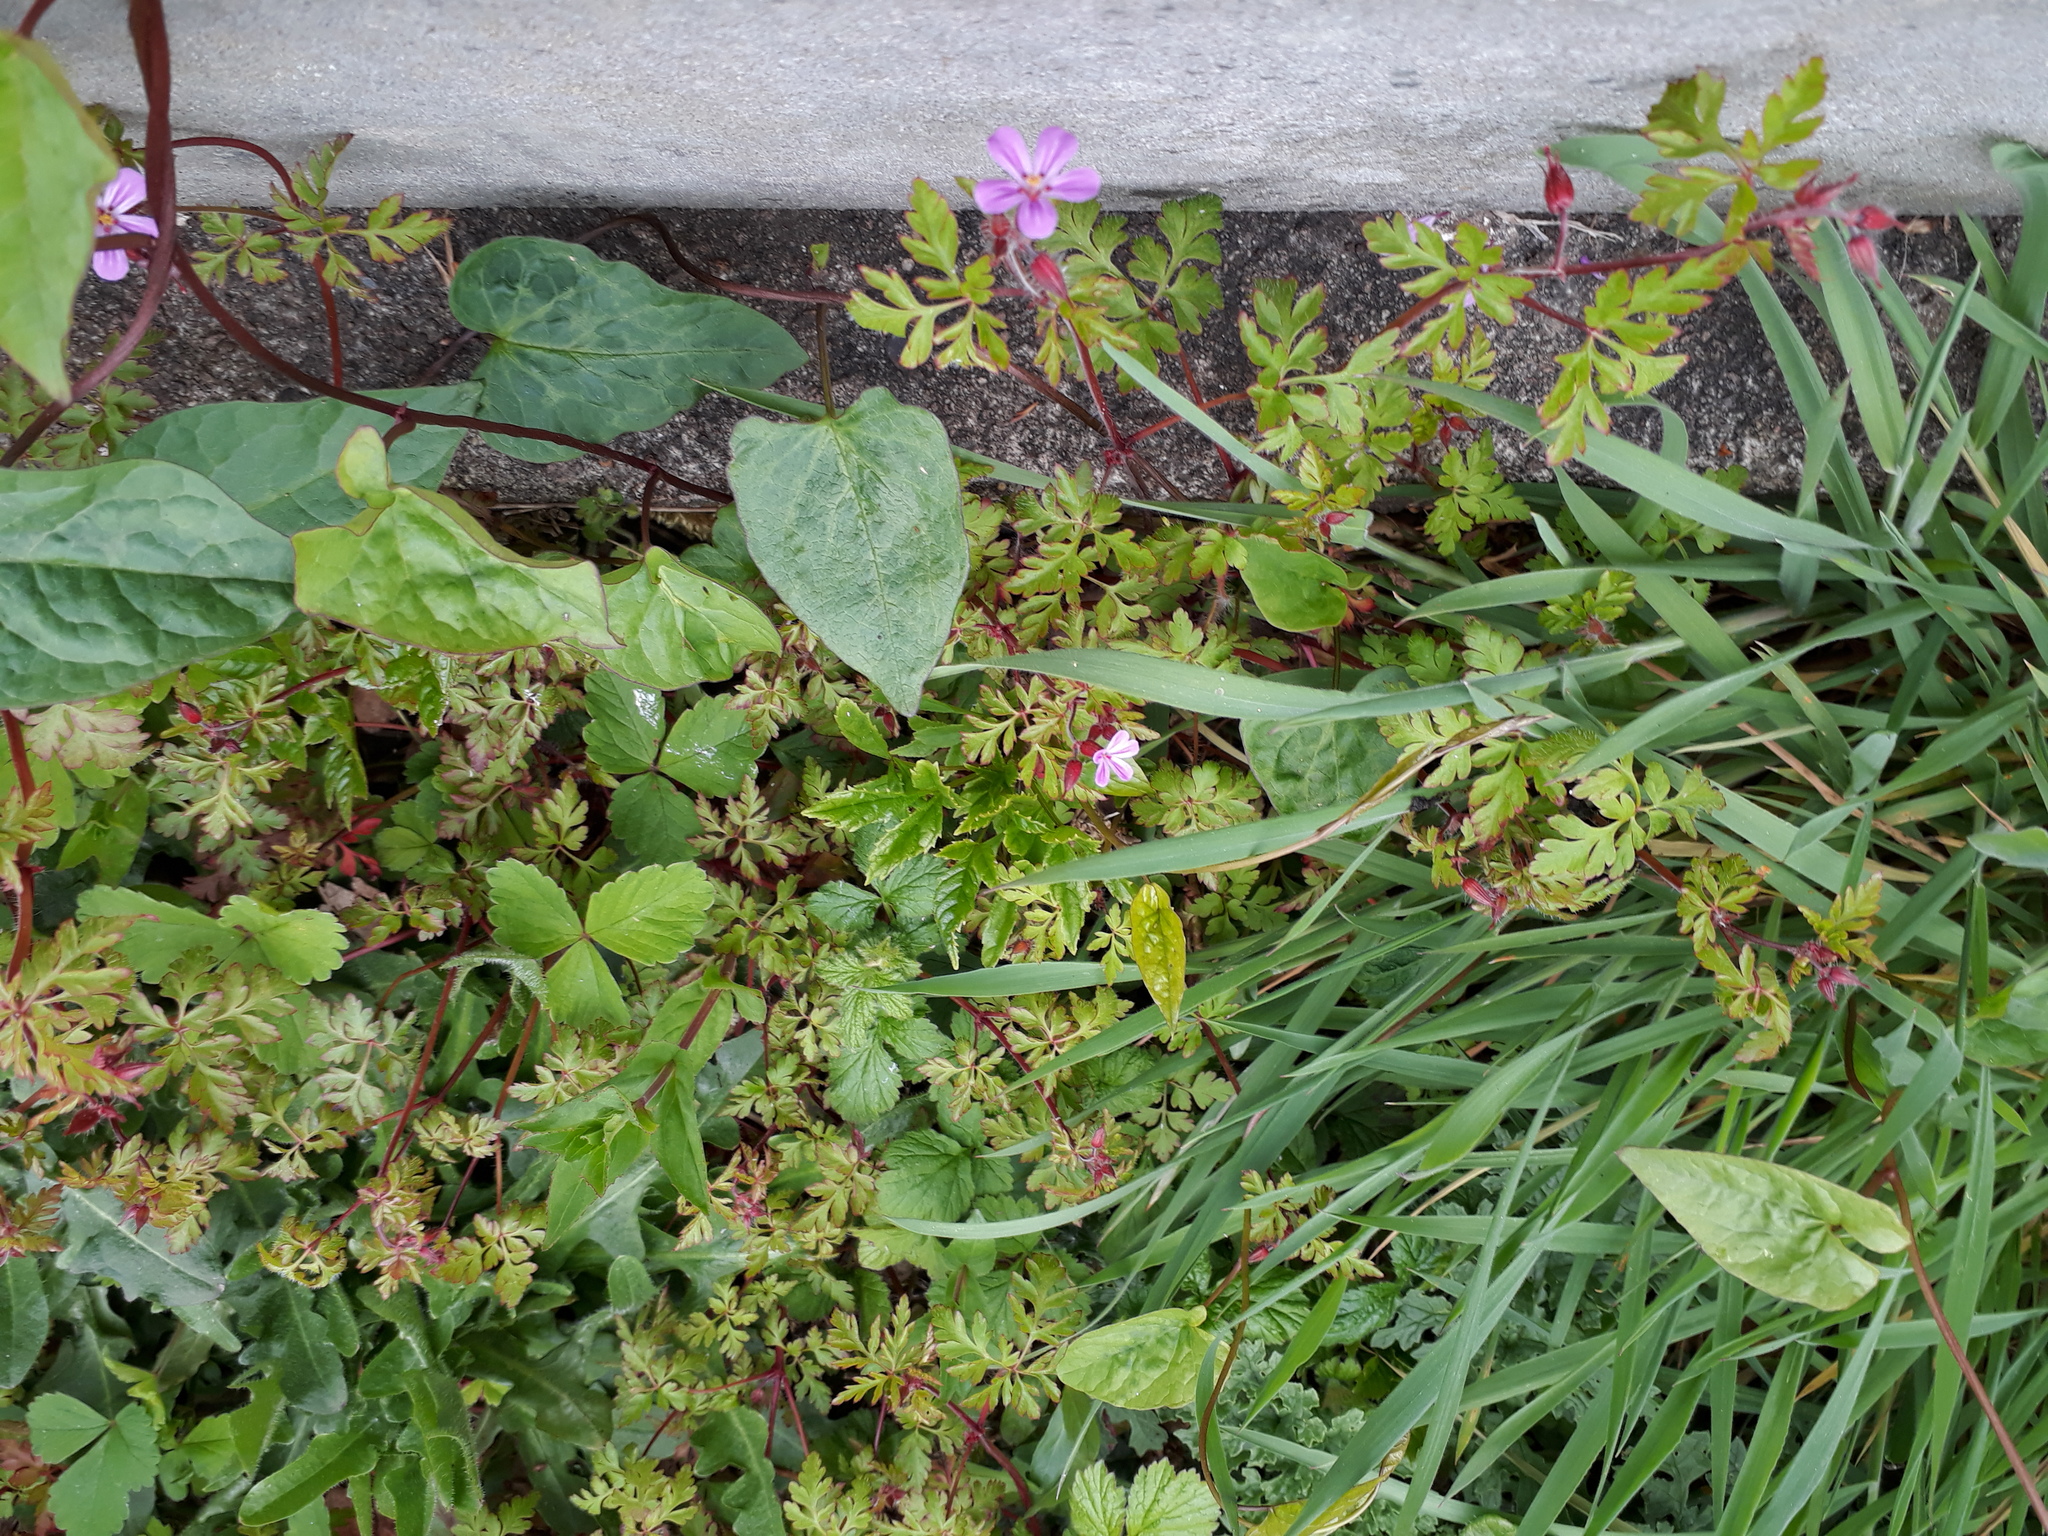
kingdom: Plantae
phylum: Tracheophyta
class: Magnoliopsida
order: Geraniales
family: Geraniaceae
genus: Geranium
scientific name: Geranium robertianum
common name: Herb-robert
